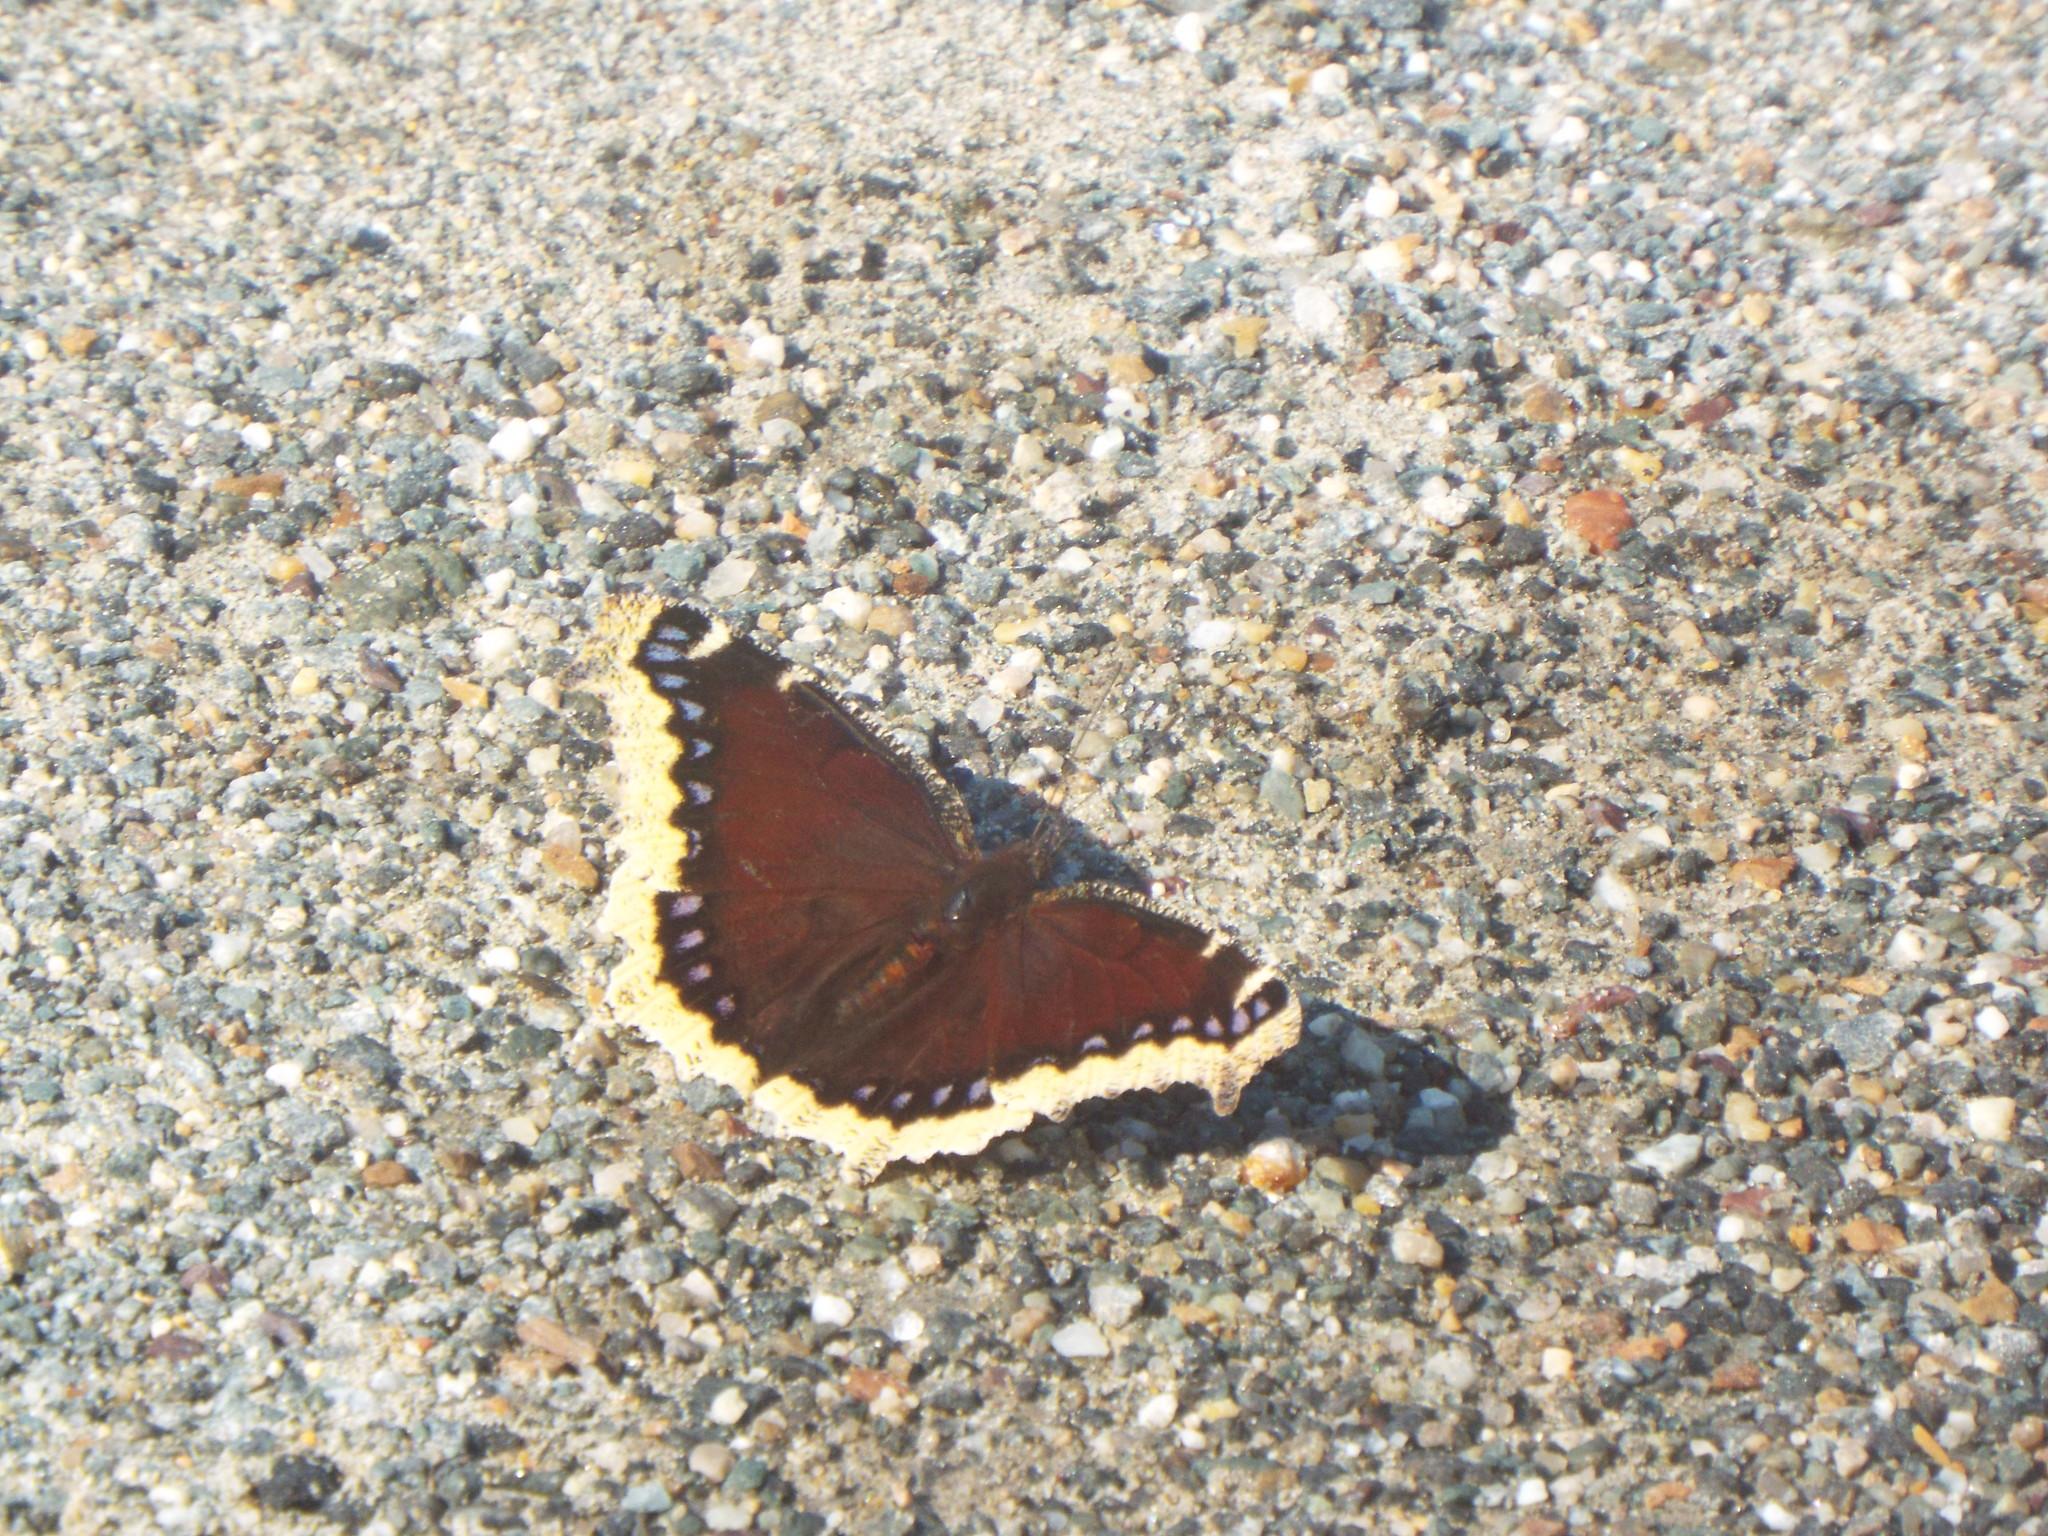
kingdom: Animalia
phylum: Arthropoda
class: Insecta
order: Lepidoptera
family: Nymphalidae
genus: Nymphalis
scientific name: Nymphalis antiopa
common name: Camberwell beauty
